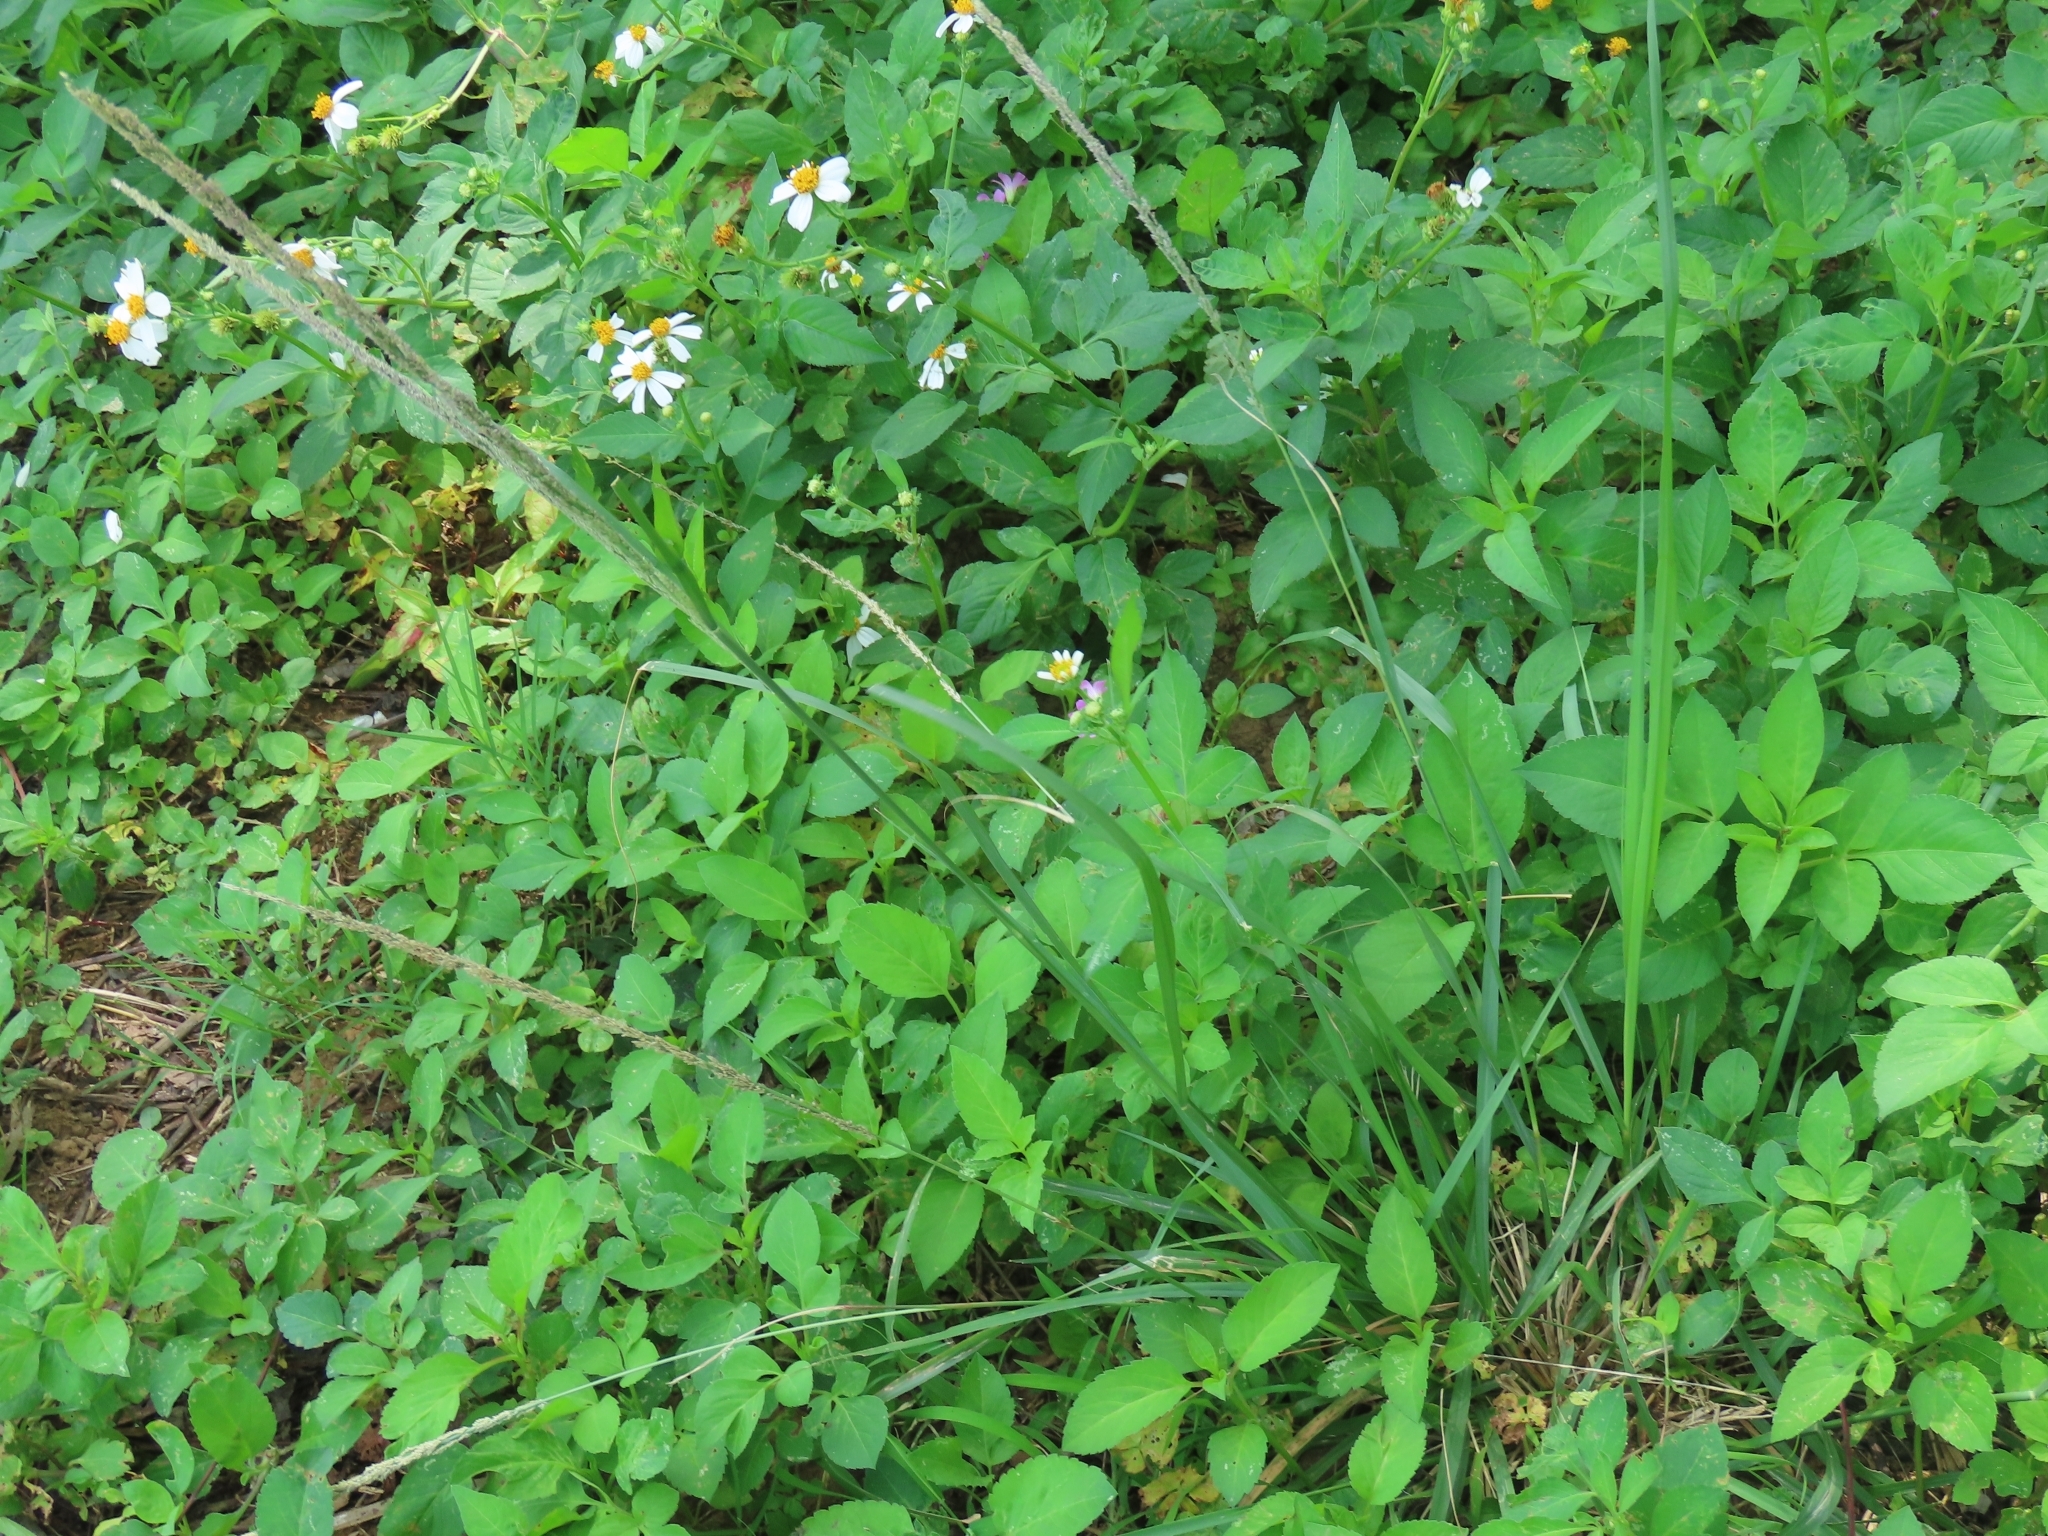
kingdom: Plantae
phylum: Tracheophyta
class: Liliopsida
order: Poales
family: Poaceae
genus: Sporobolus
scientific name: Sporobolus indicus
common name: Smut grass
